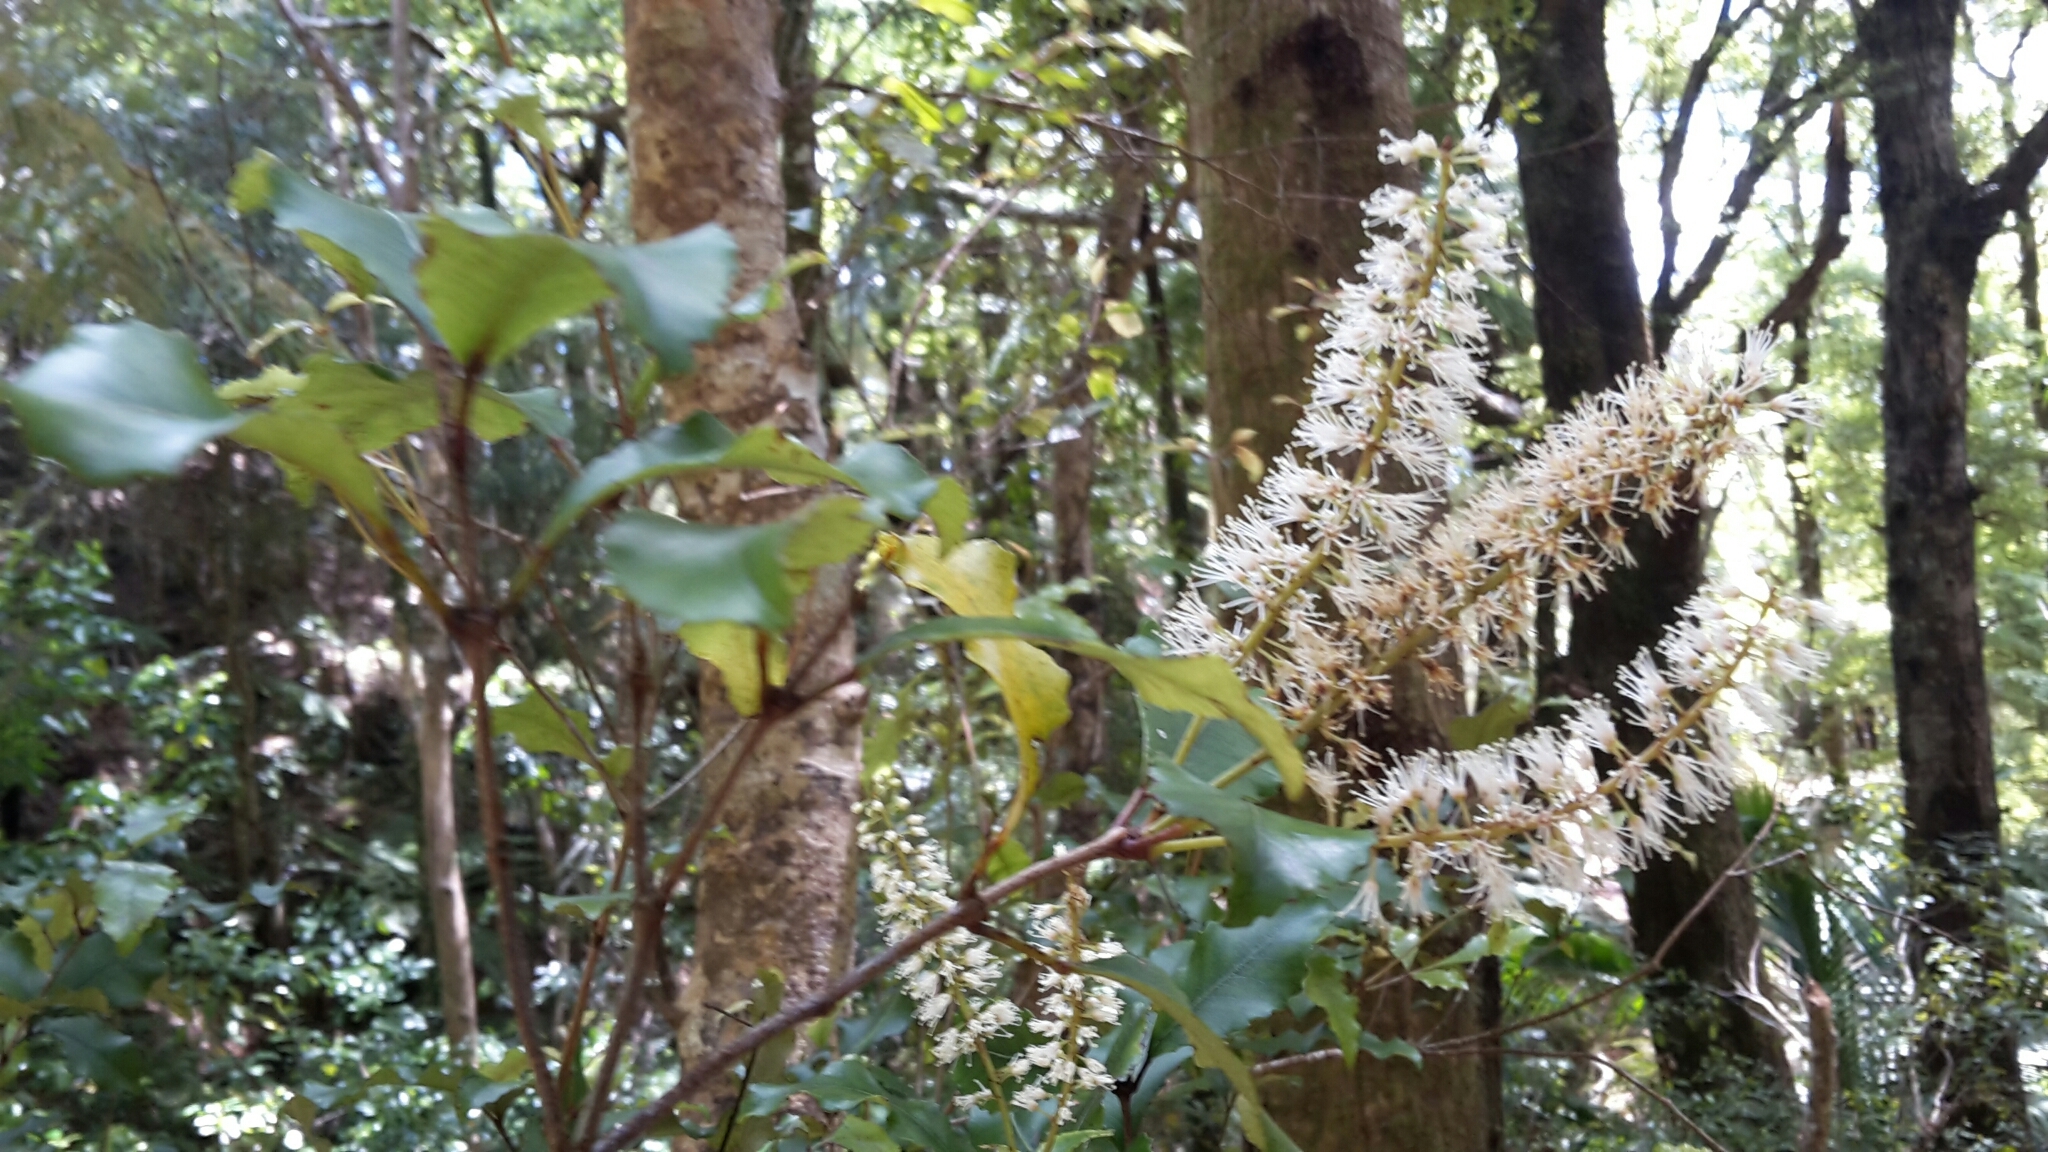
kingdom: Plantae
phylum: Tracheophyta
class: Magnoliopsida
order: Oxalidales
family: Cunoniaceae
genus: Pterophylla
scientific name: Pterophylla racemosa
